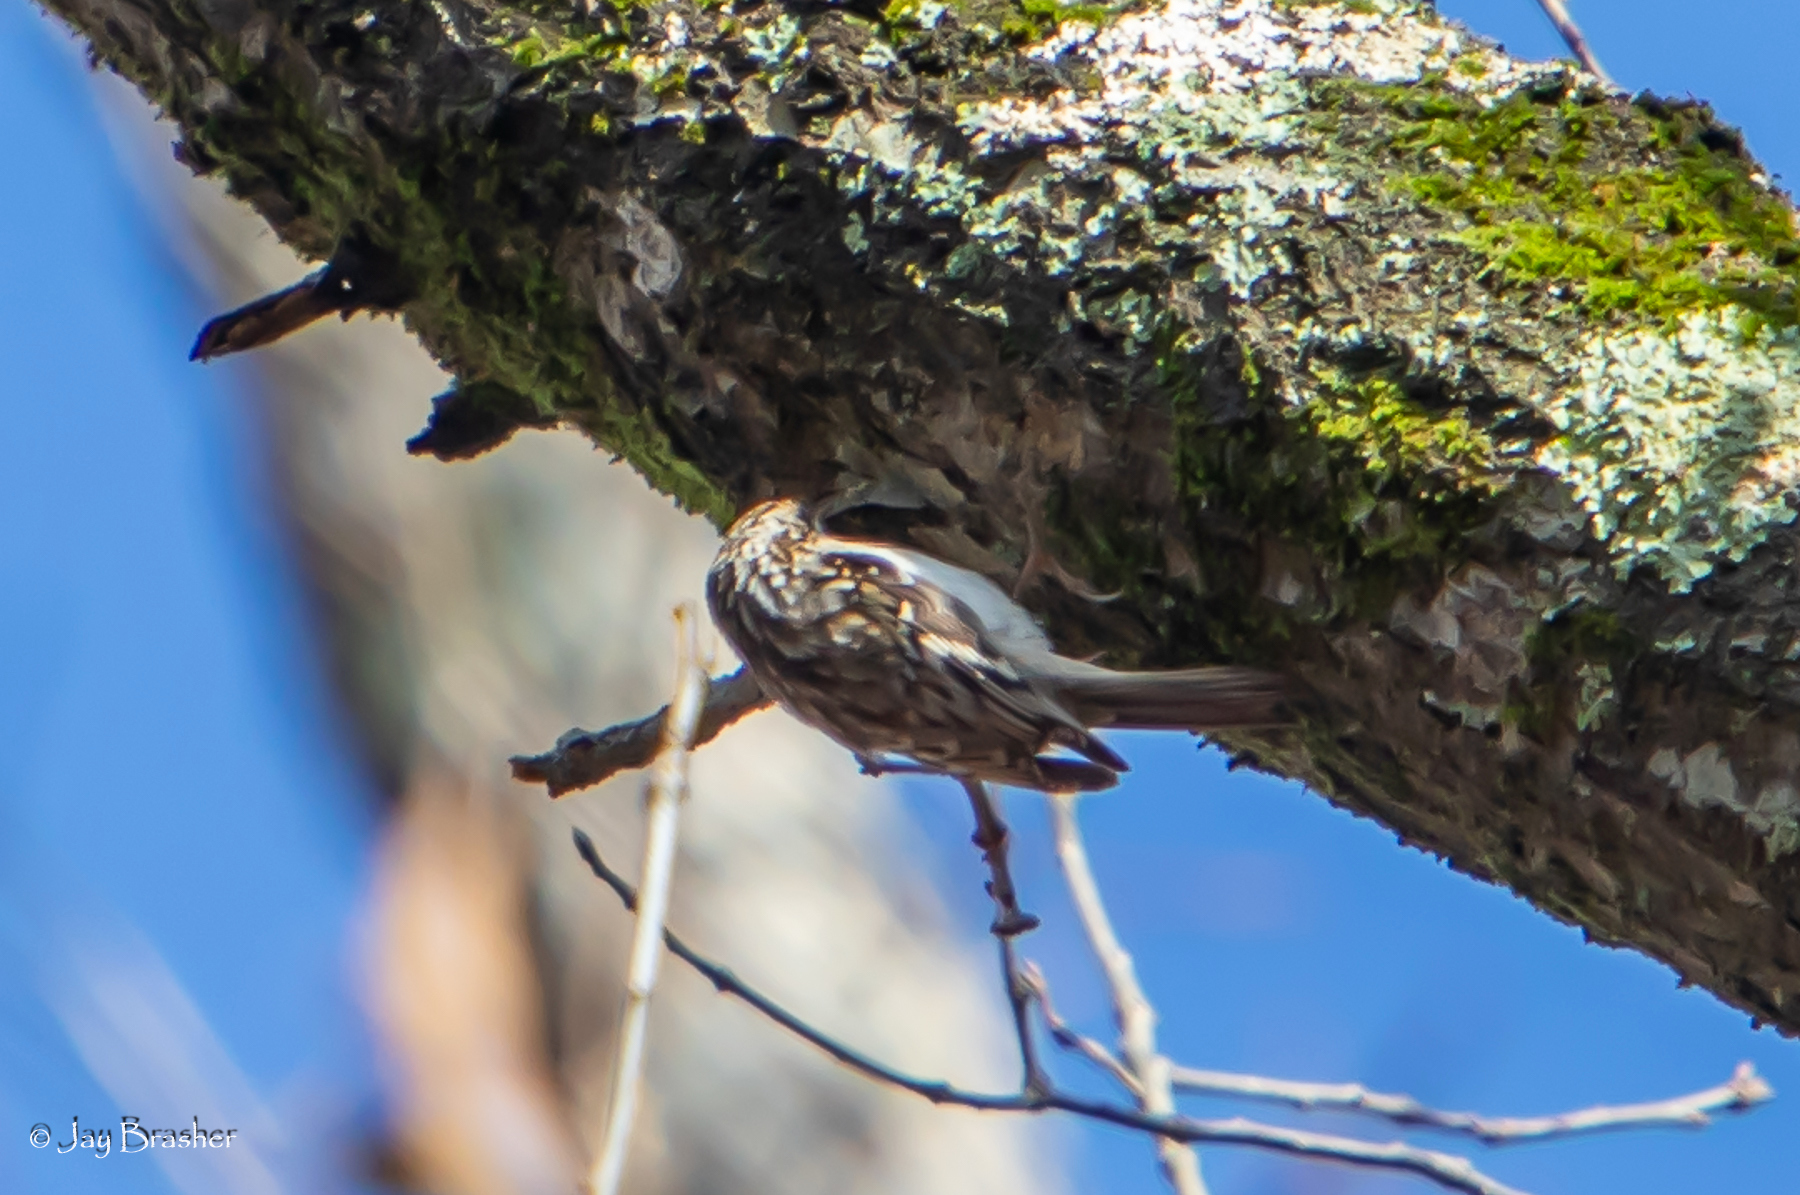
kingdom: Animalia
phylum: Chordata
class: Aves
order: Passeriformes
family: Certhiidae
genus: Certhia
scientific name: Certhia americana
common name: Brown creeper
